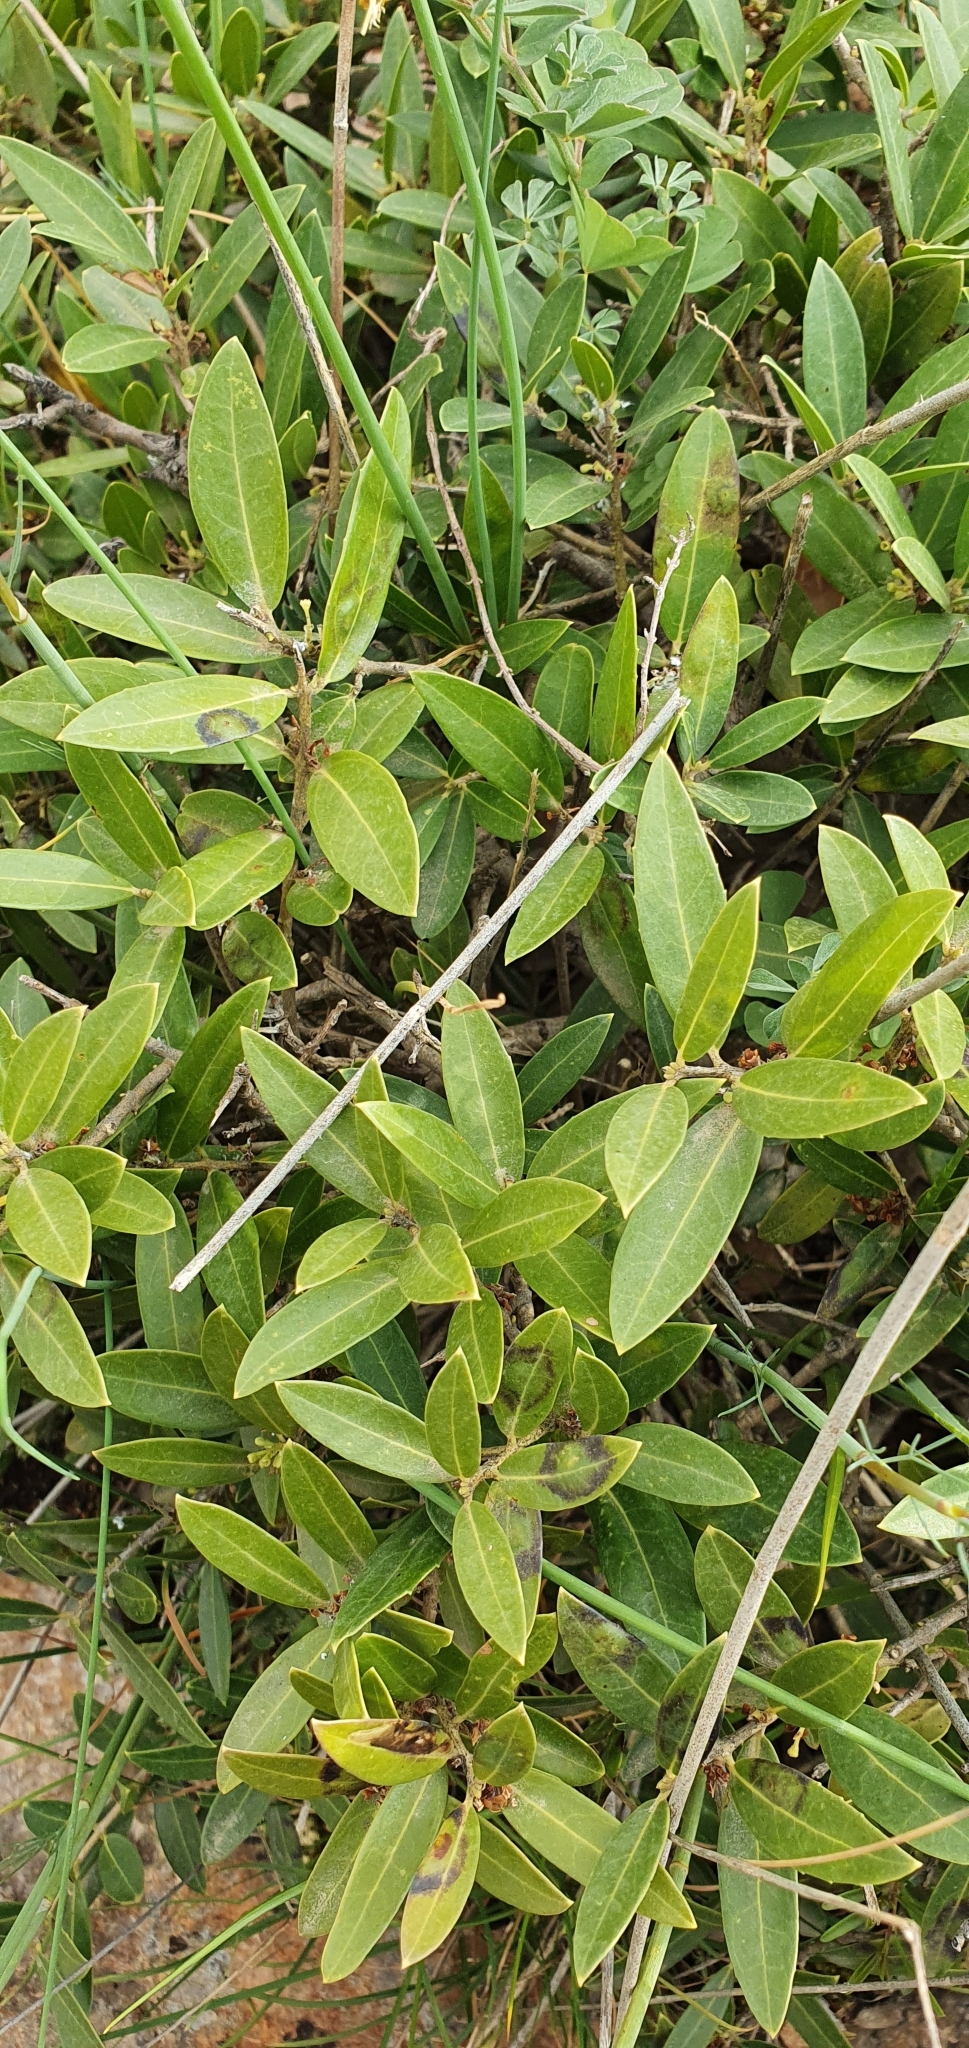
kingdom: Plantae
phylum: Tracheophyta
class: Magnoliopsida
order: Lamiales
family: Oleaceae
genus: Phillyrea
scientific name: Phillyrea latifolia
